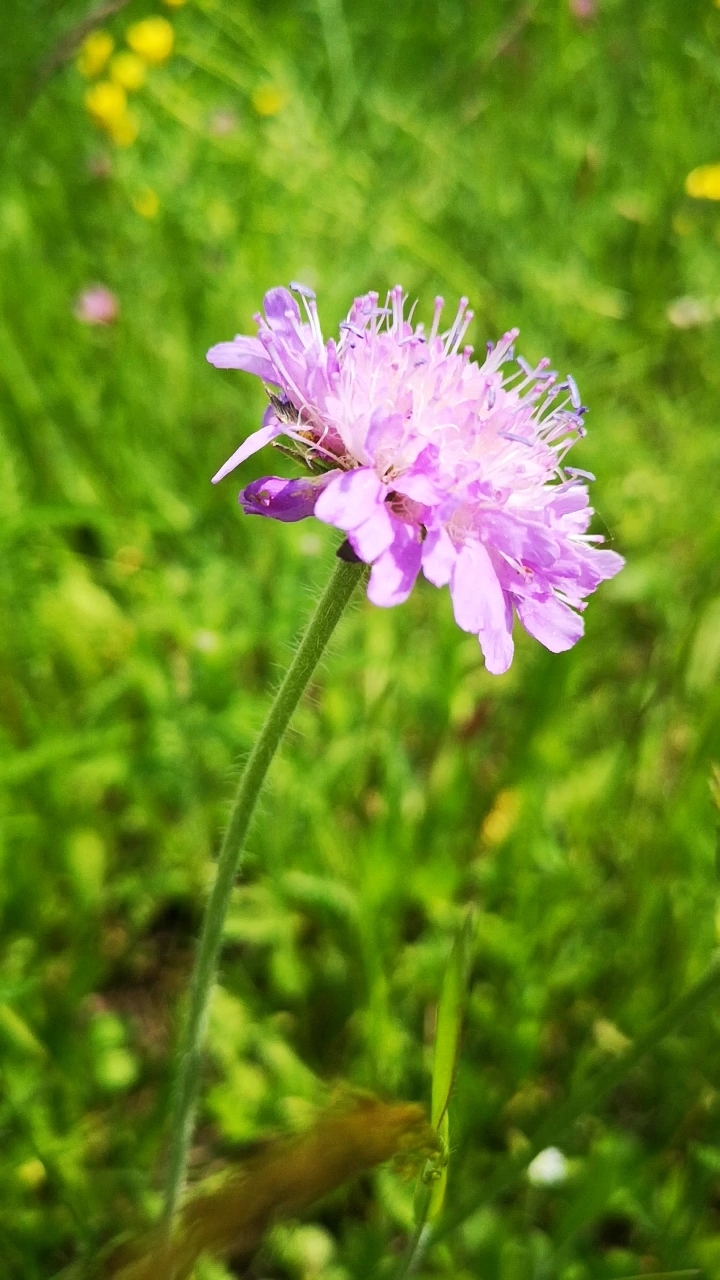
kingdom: Plantae
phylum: Tracheophyta
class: Magnoliopsida
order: Dipsacales
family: Caprifoliaceae
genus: Knautia
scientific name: Knautia arvensis
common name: Field scabiosa
